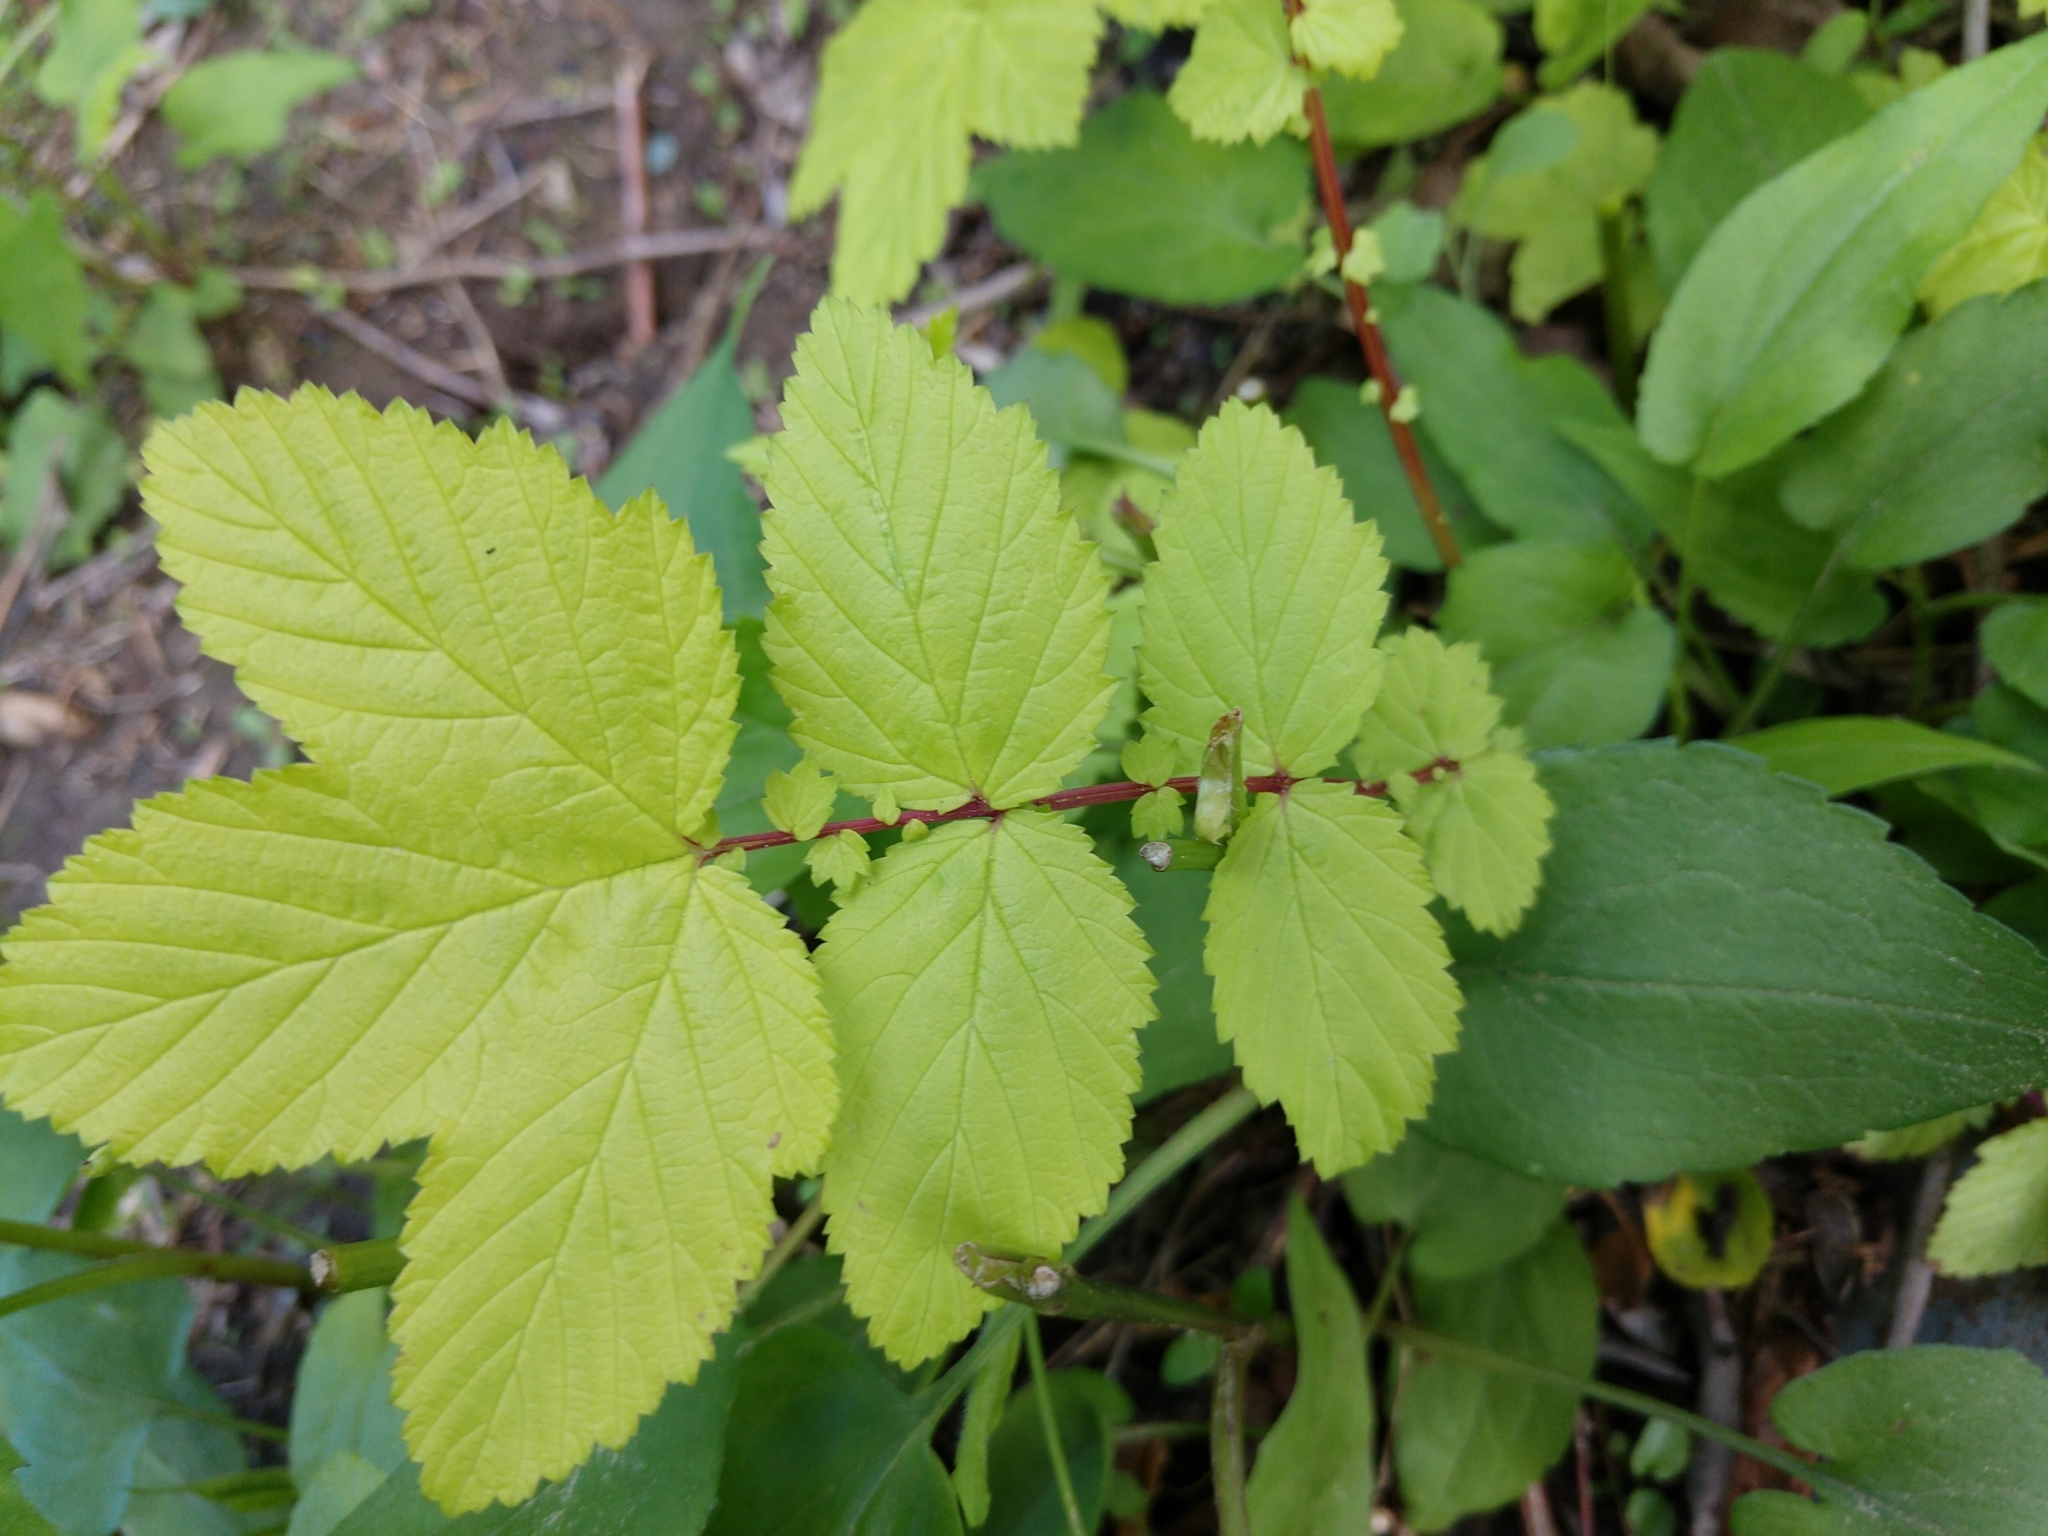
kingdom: Plantae
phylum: Tracheophyta
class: Magnoliopsida
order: Rosales
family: Rosaceae
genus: Filipendula
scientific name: Filipendula ulmaria
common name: Meadowsweet
